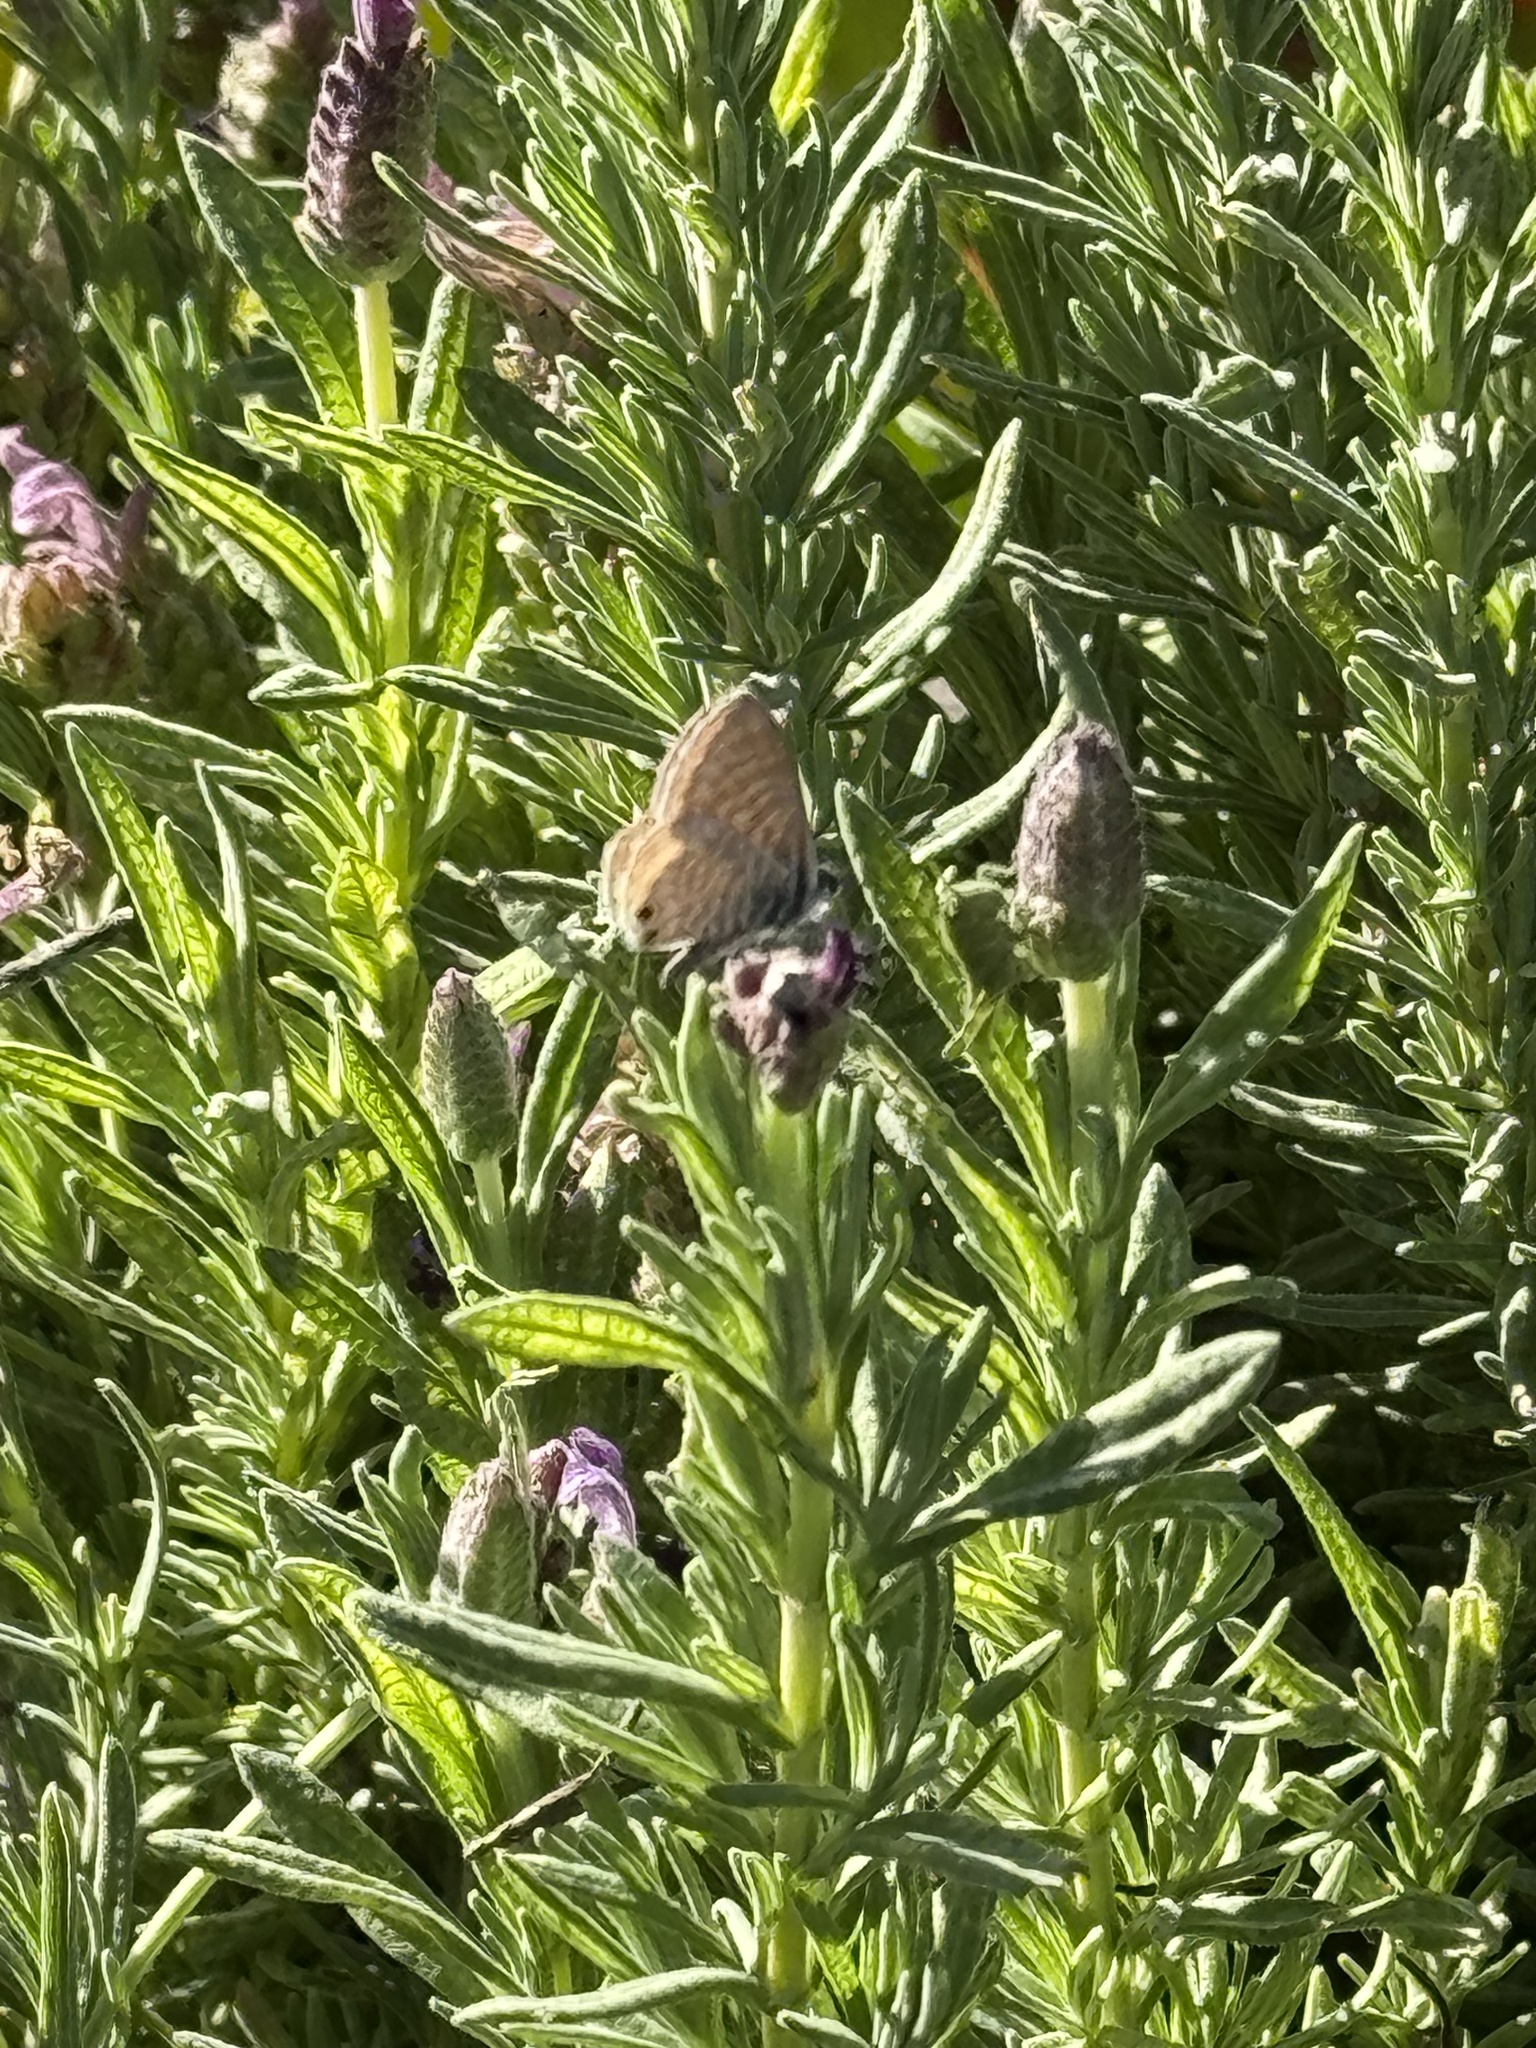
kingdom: Animalia
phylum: Arthropoda
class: Insecta
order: Lepidoptera
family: Lycaenidae
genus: Leptotes
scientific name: Leptotes marina
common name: Marine blue
